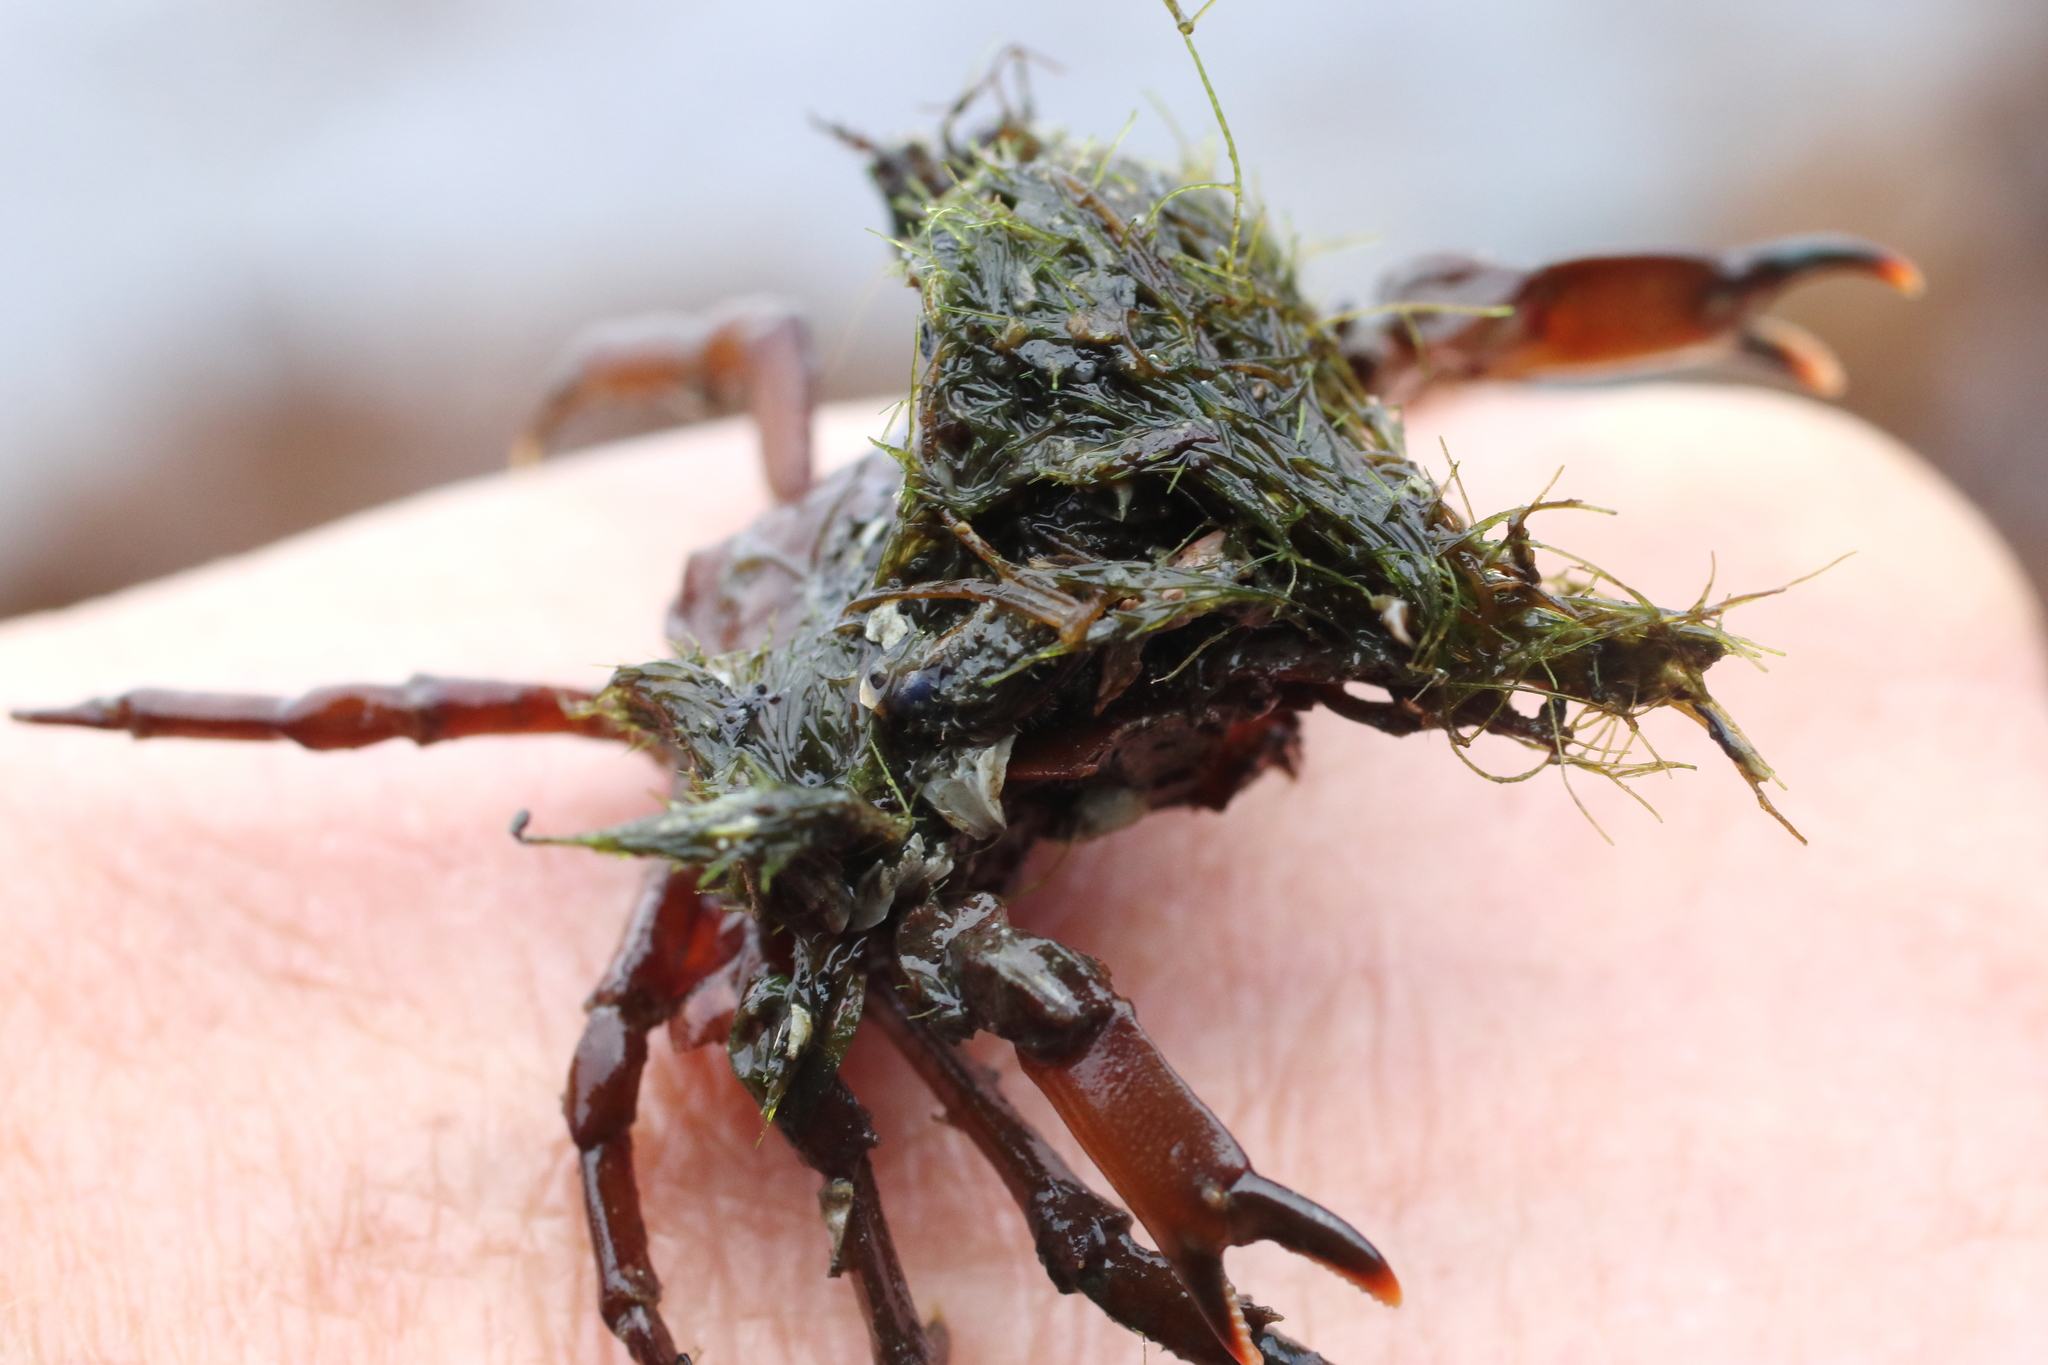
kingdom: Animalia
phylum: Arthropoda
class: Malacostraca
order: Decapoda
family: Epialtidae
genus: Pugettia
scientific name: Pugettia gracilis
